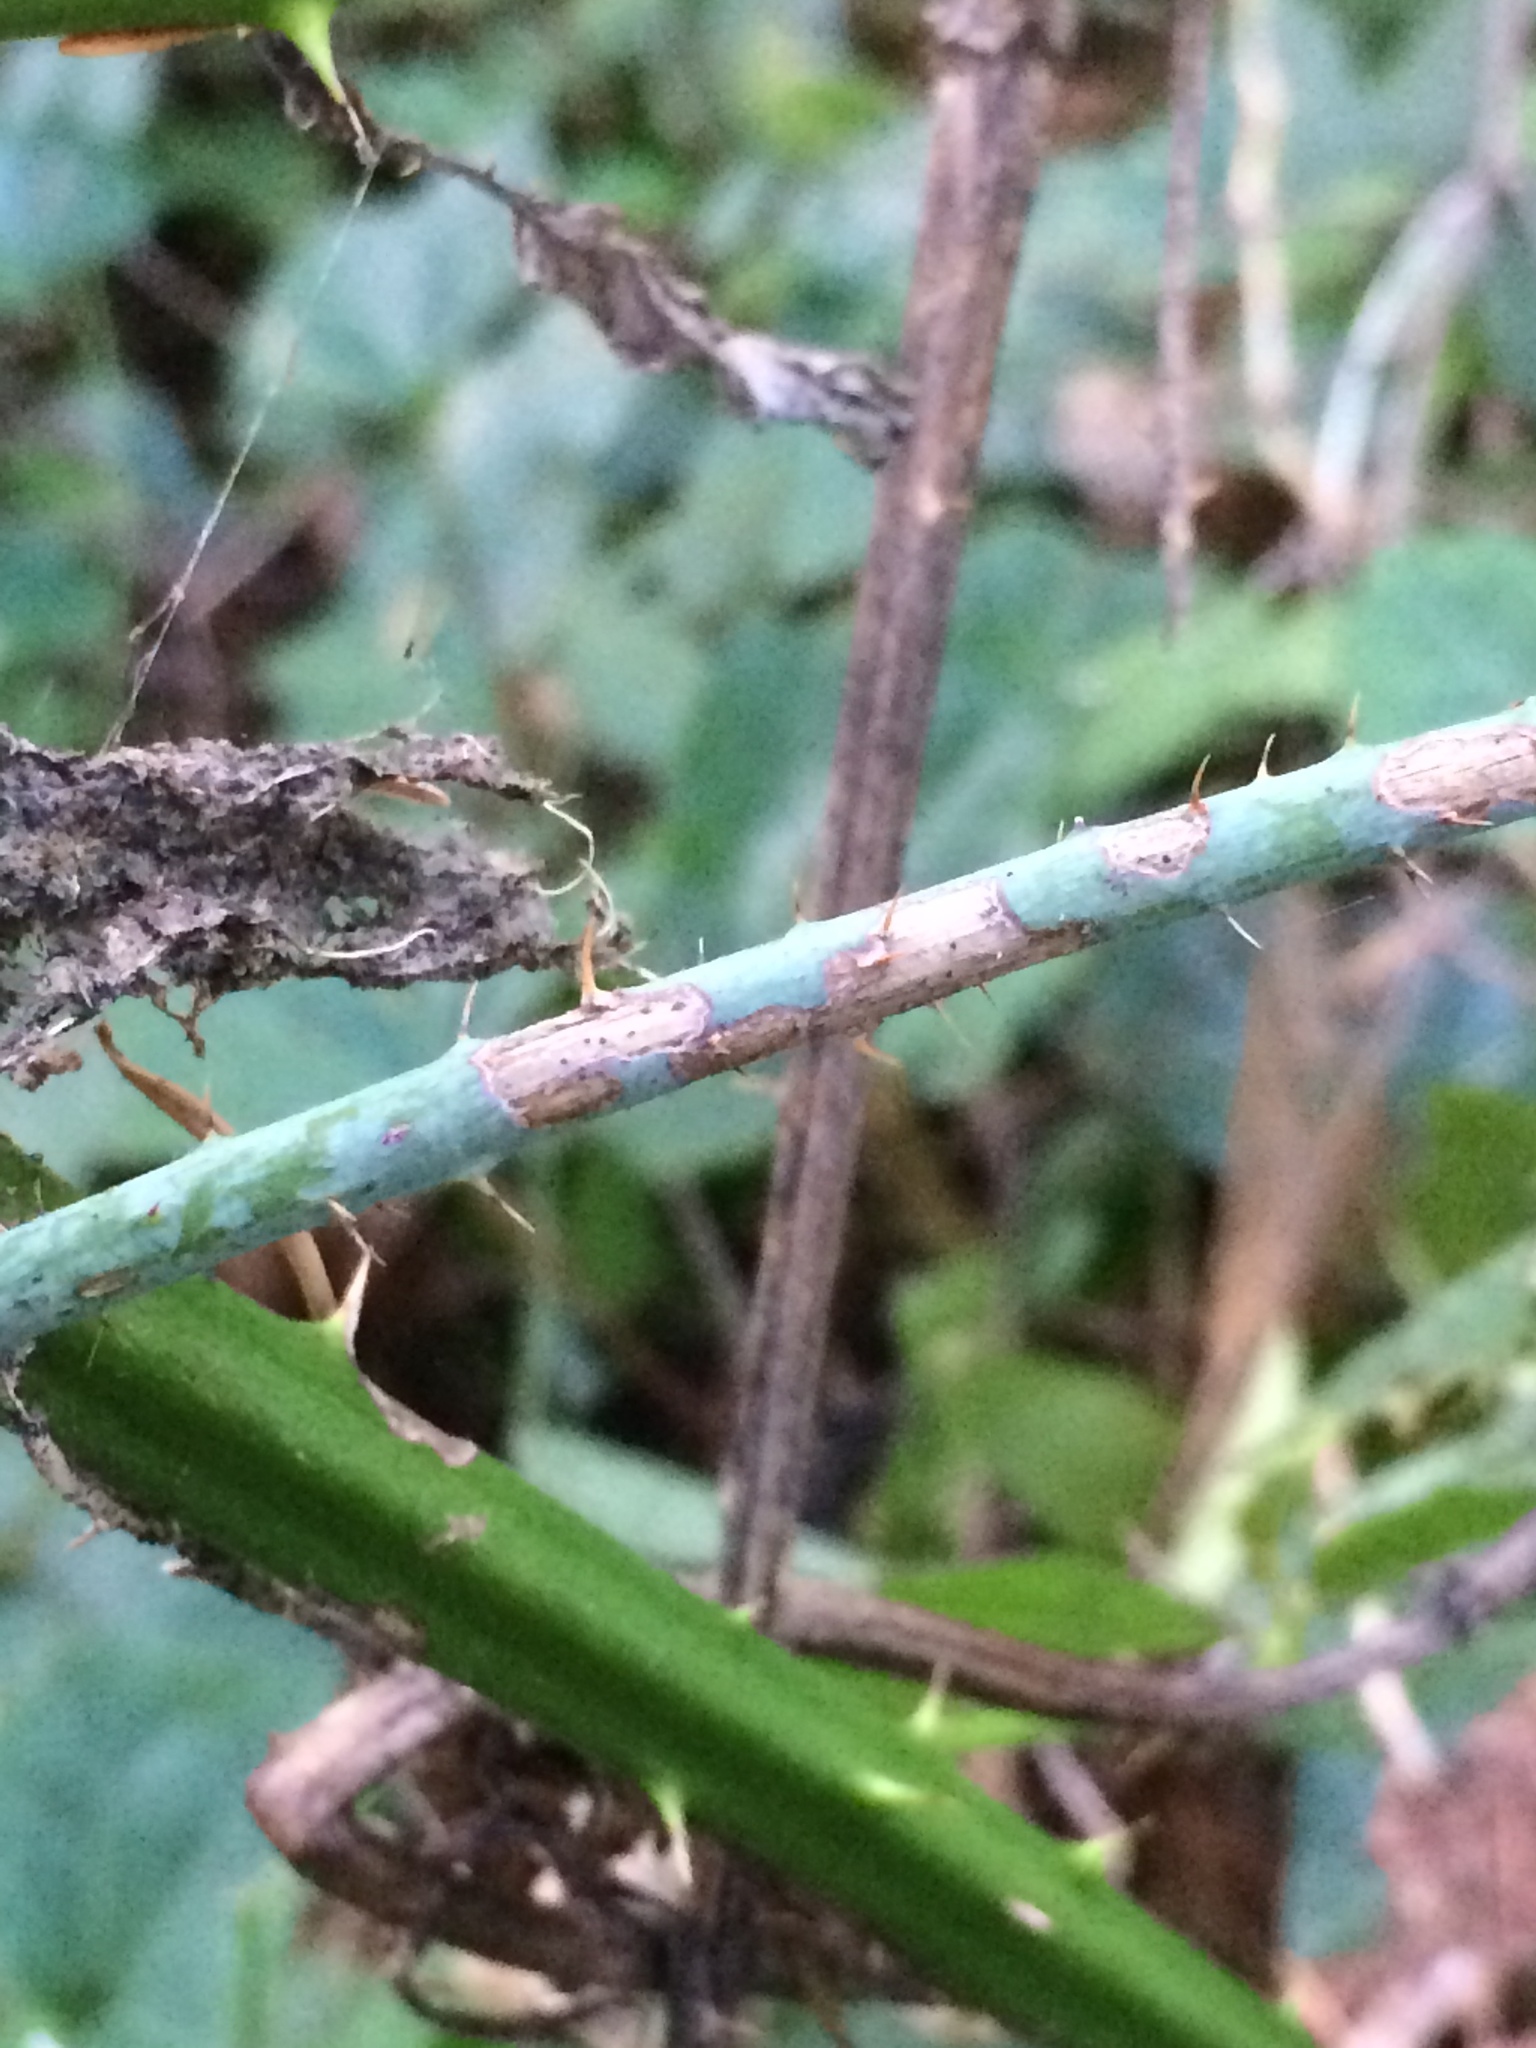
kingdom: Plantae
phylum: Tracheophyta
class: Magnoliopsida
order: Rosales
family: Rosaceae
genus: Rubus
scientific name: Rubus ursinus
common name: Pacific blackberry
